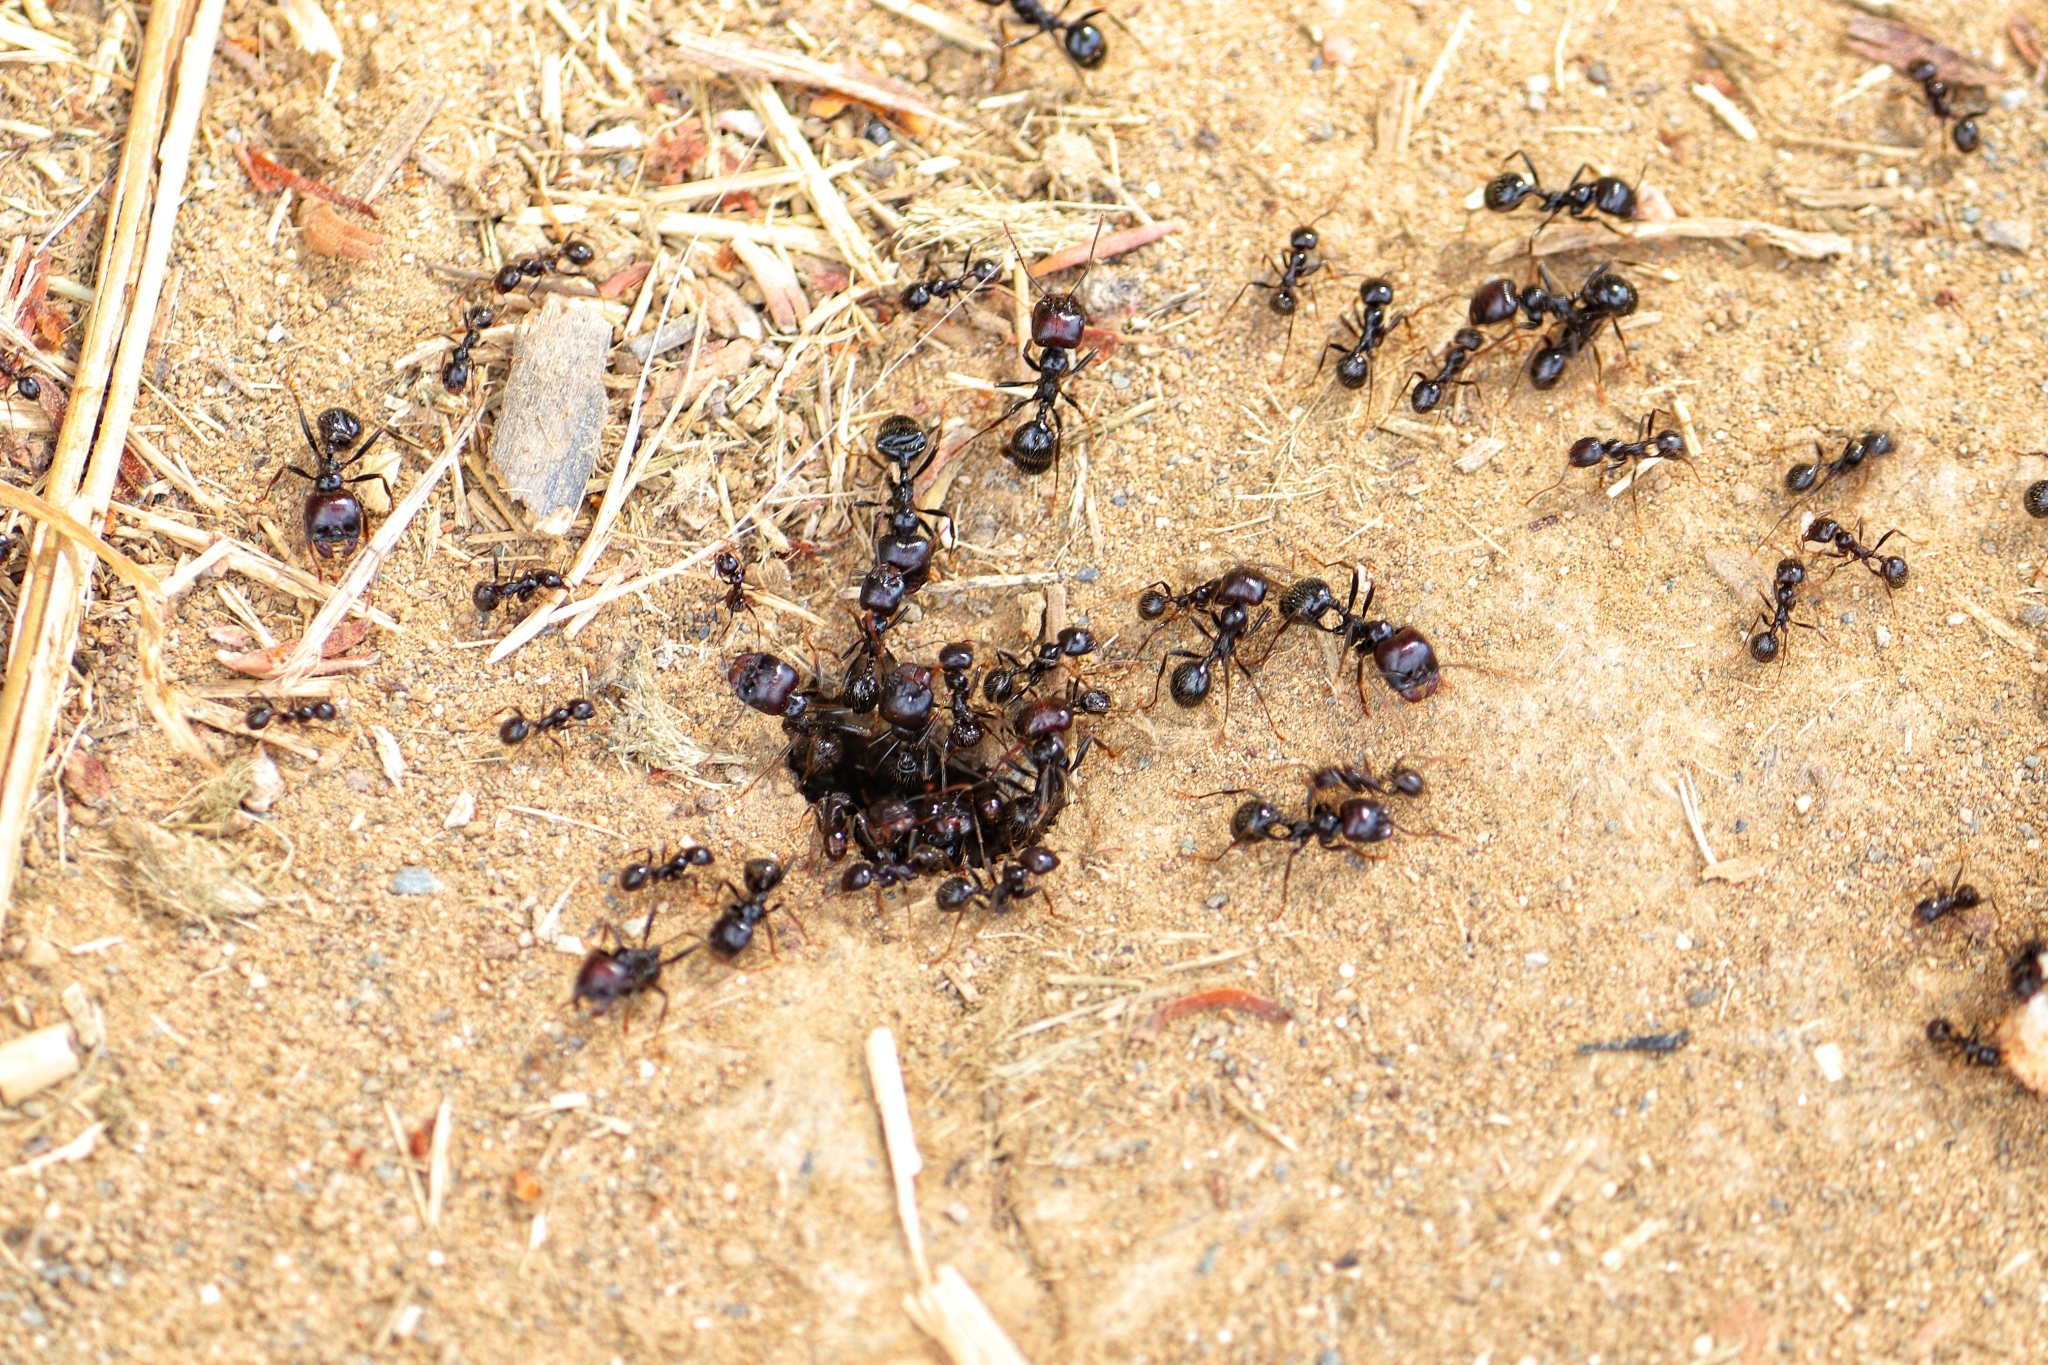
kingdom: Animalia
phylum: Arthropoda
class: Insecta
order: Hymenoptera
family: Formicidae
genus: Messor
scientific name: Messor barbarus
